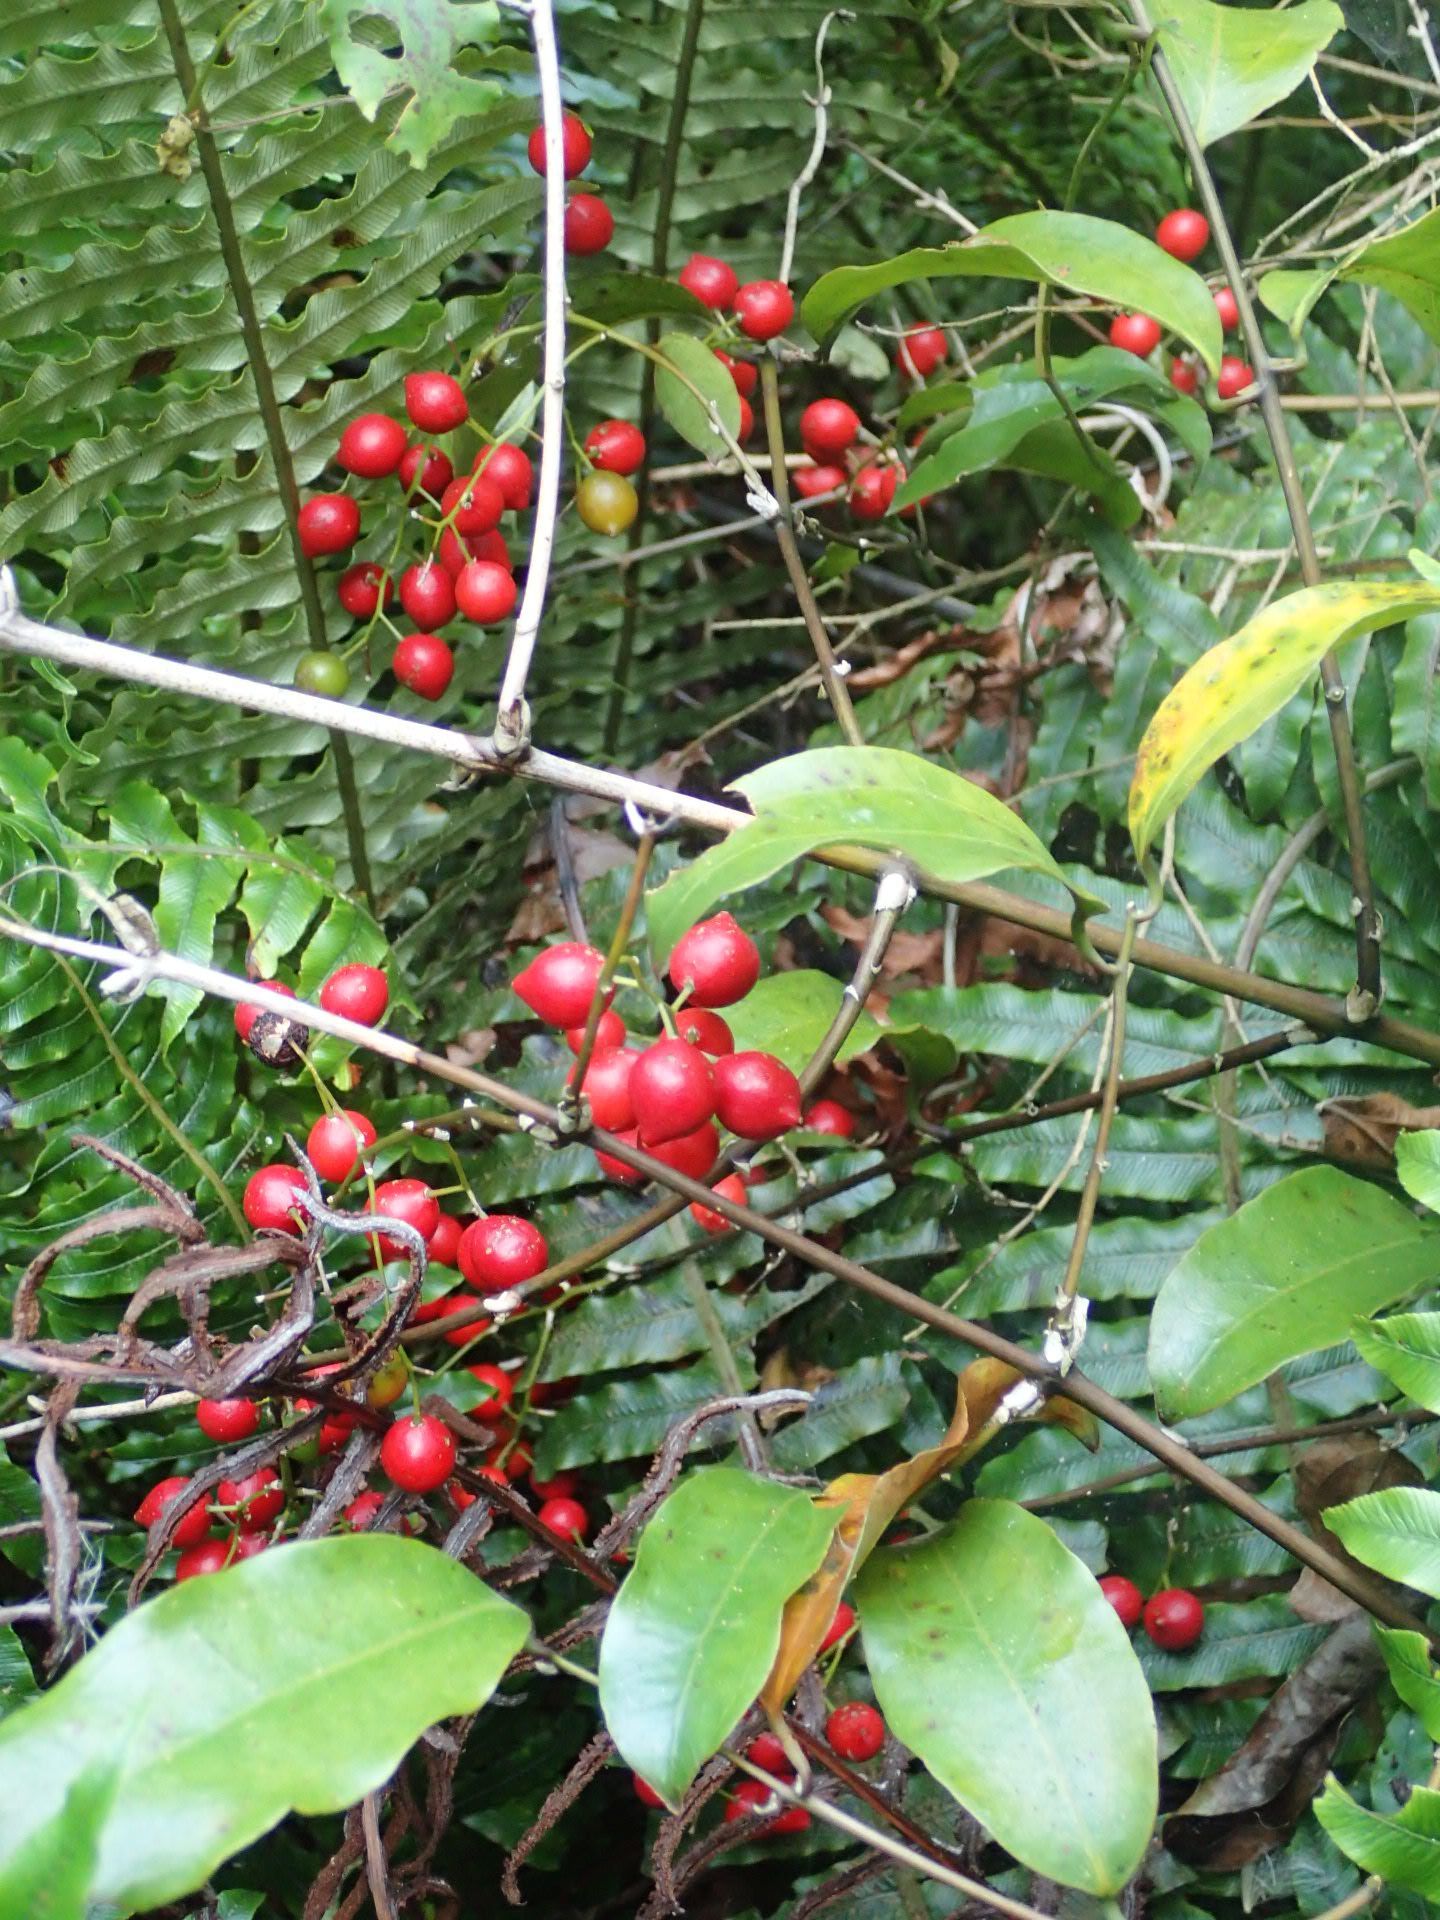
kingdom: Plantae
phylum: Tracheophyta
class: Liliopsida
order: Liliales
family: Ripogonaceae
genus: Ripogonum
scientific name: Ripogonum scandens
